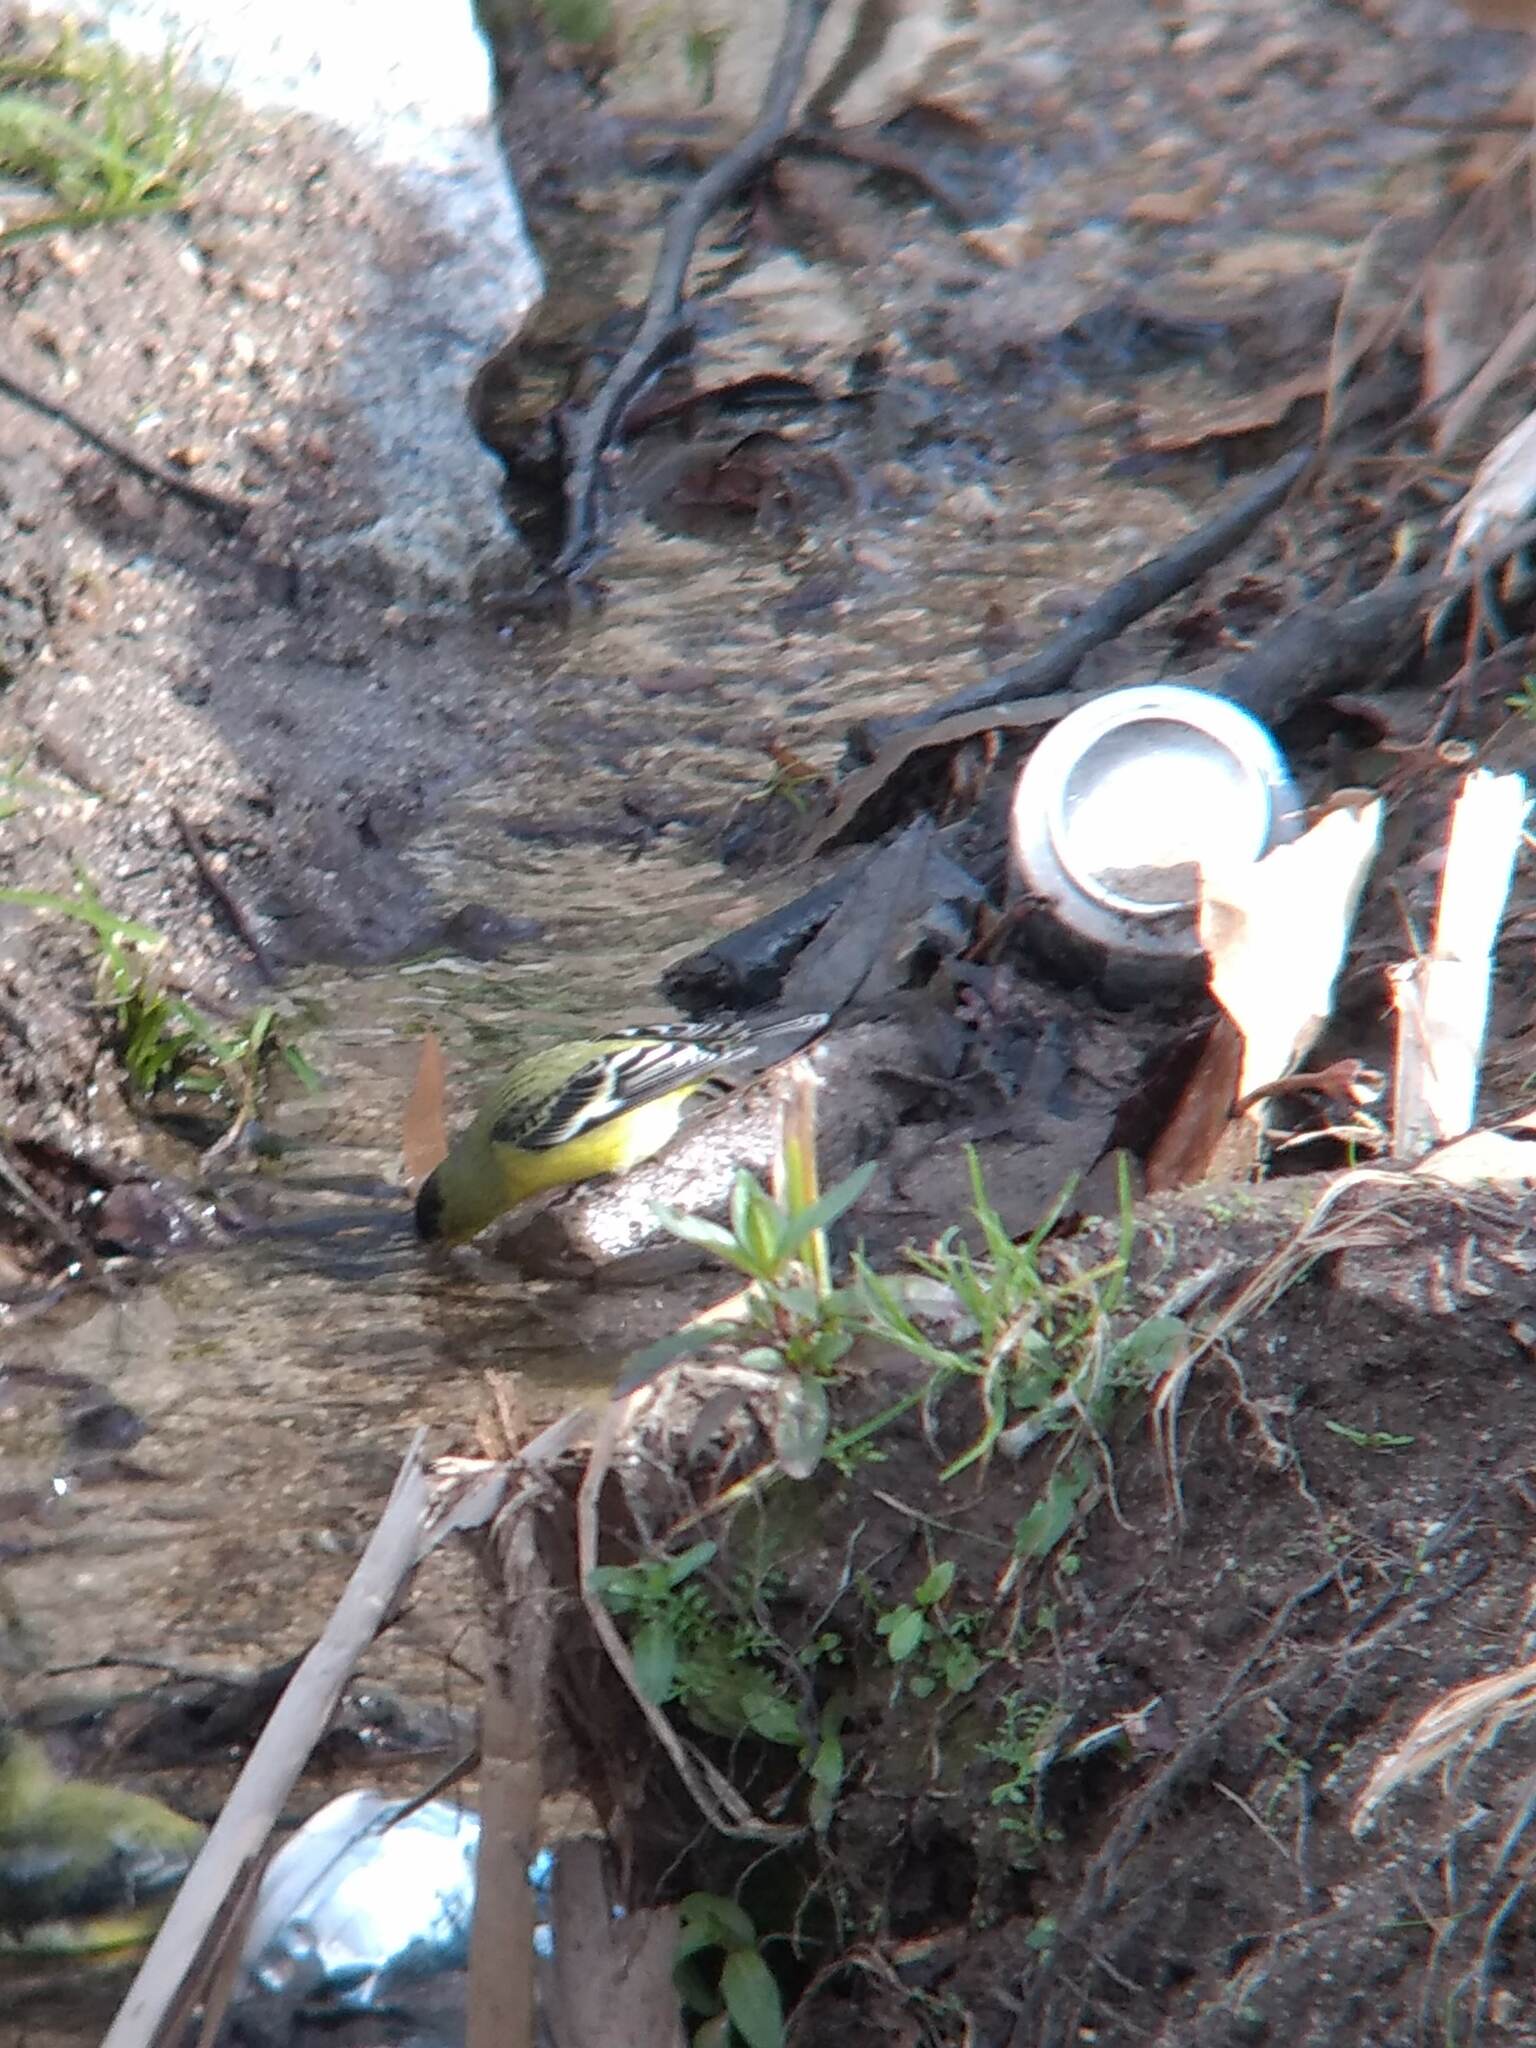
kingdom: Animalia
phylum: Chordata
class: Aves
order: Passeriformes
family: Fringillidae
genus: Spinus
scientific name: Spinus psaltria
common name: Lesser goldfinch
